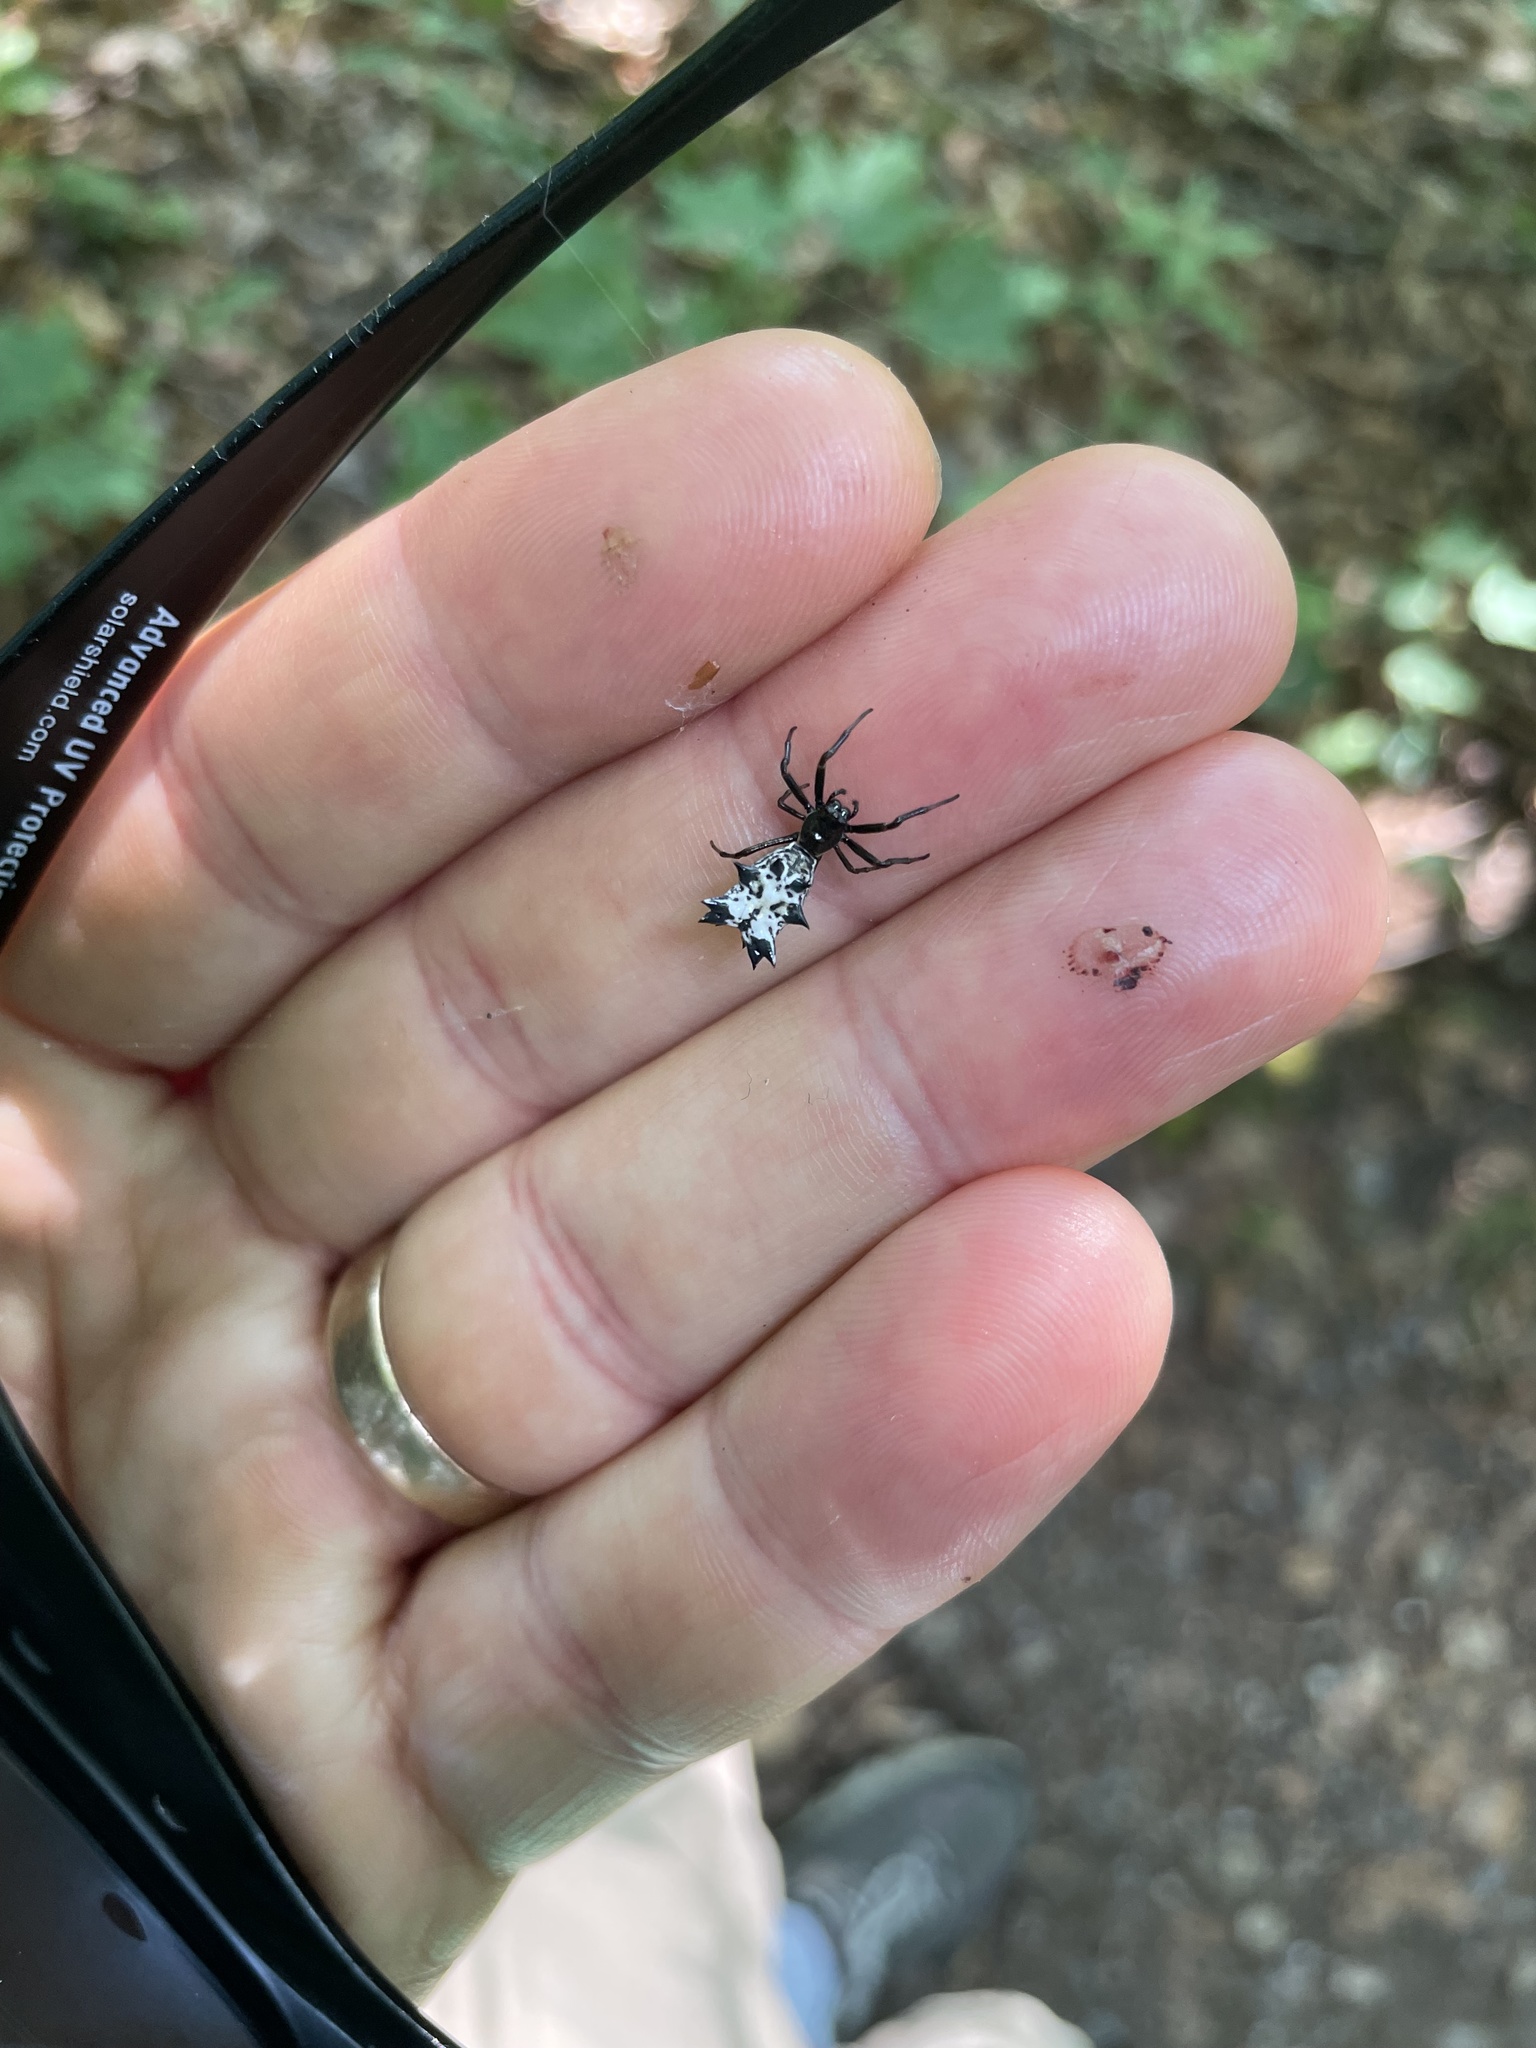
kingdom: Animalia
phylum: Arthropoda
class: Arachnida
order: Araneae
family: Araneidae
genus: Micrathena
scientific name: Micrathena gracilis
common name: Orb weavers
